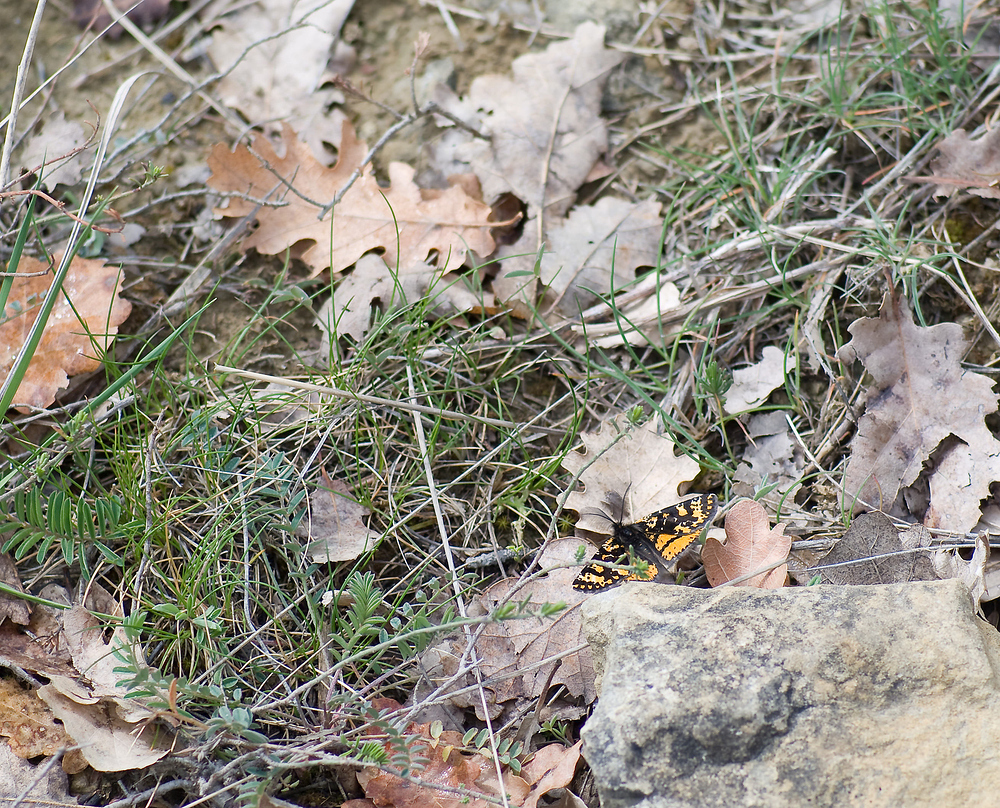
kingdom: Animalia
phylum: Arthropoda
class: Insecta
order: Lepidoptera
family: Geometridae
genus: Eurranthis
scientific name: Eurranthis plummistaria
